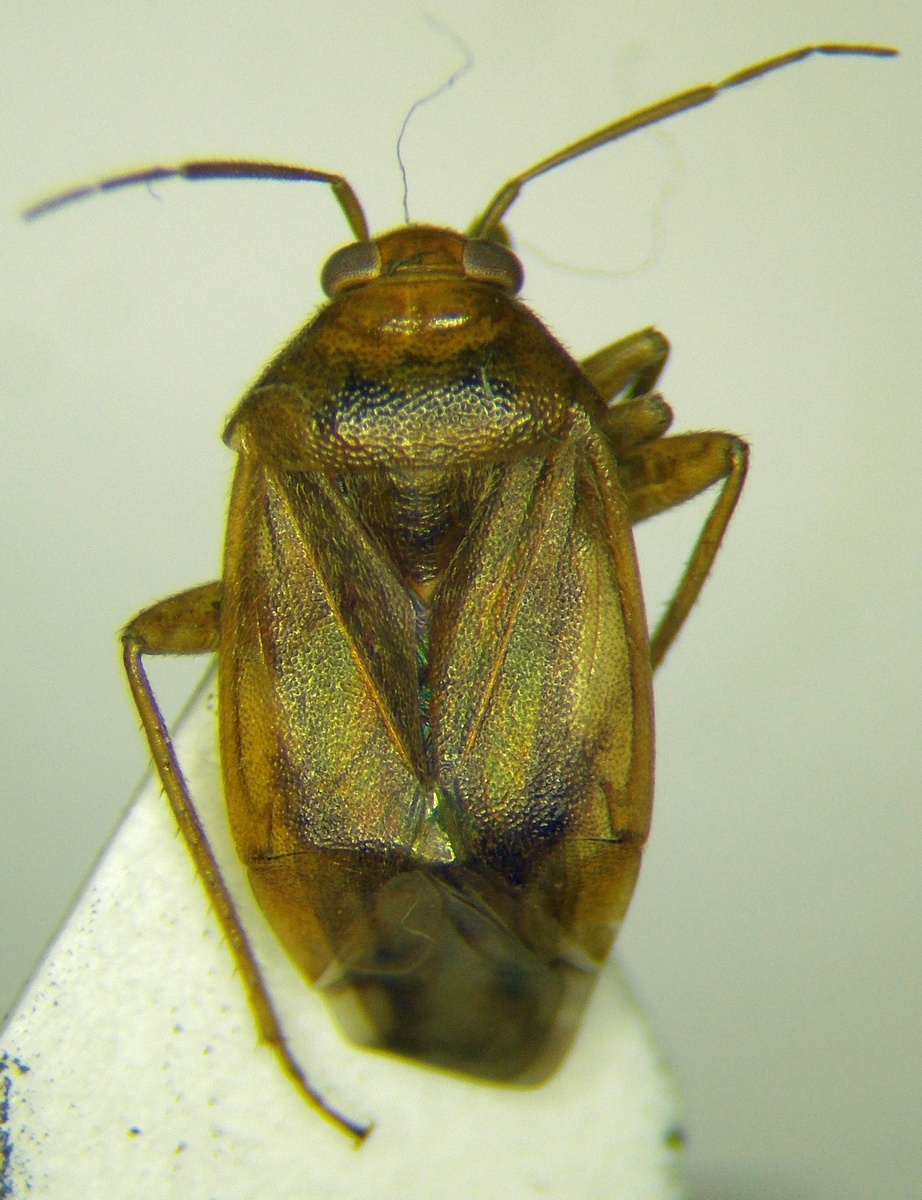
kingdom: Animalia
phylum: Arthropoda
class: Insecta
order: Hemiptera
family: Miridae
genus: Agnocoris
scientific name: Agnocoris rubicundus
